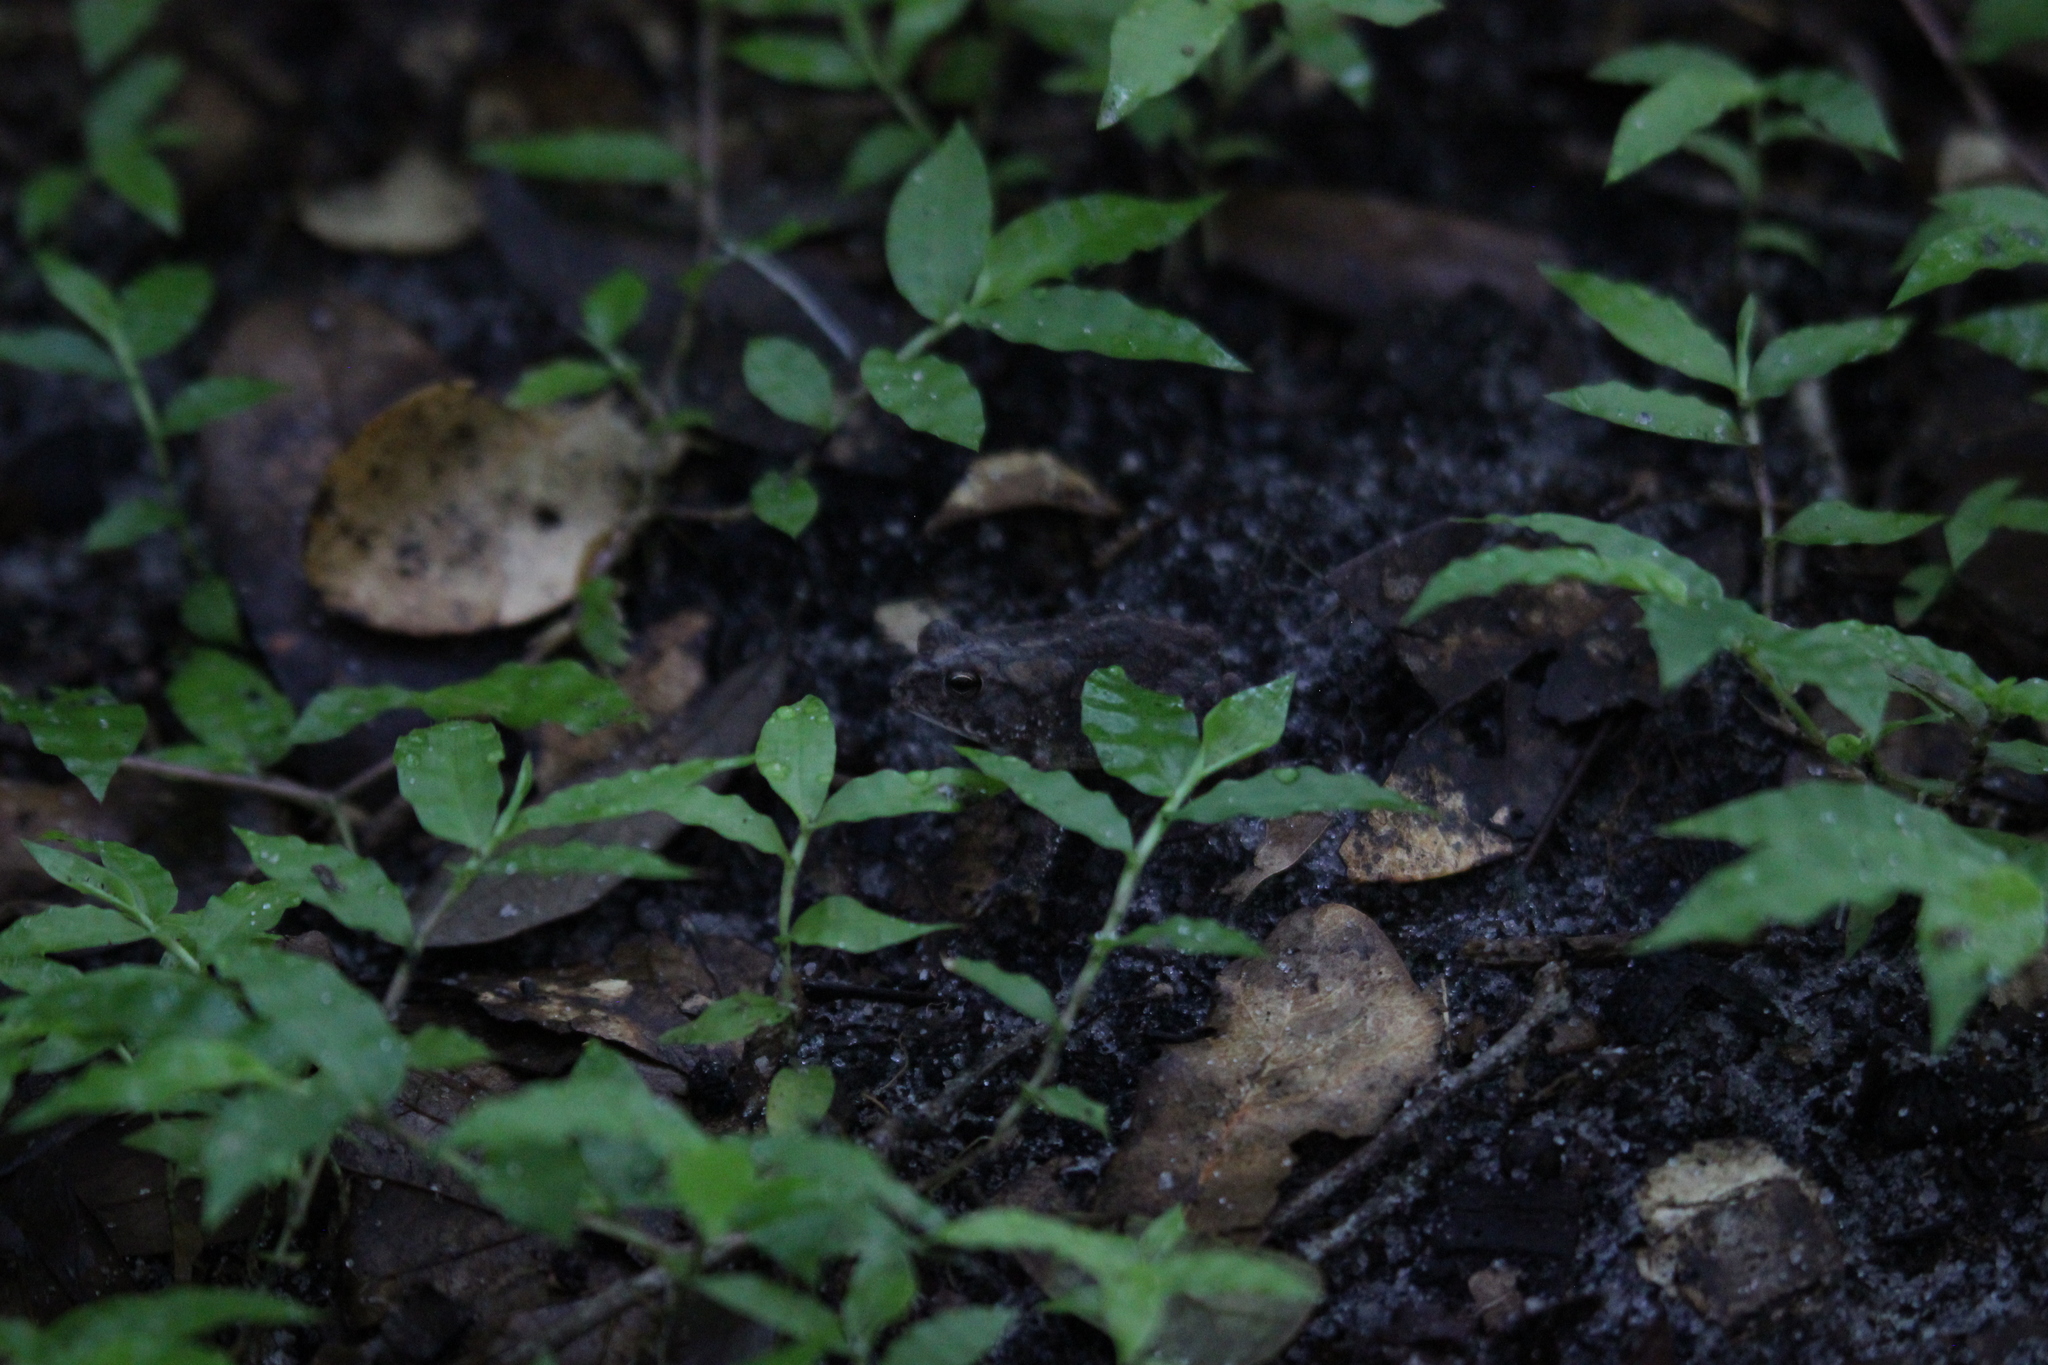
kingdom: Animalia
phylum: Chordata
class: Amphibia
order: Anura
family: Bufonidae
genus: Anaxyrus
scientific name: Anaxyrus terrestris
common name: Southern toad
